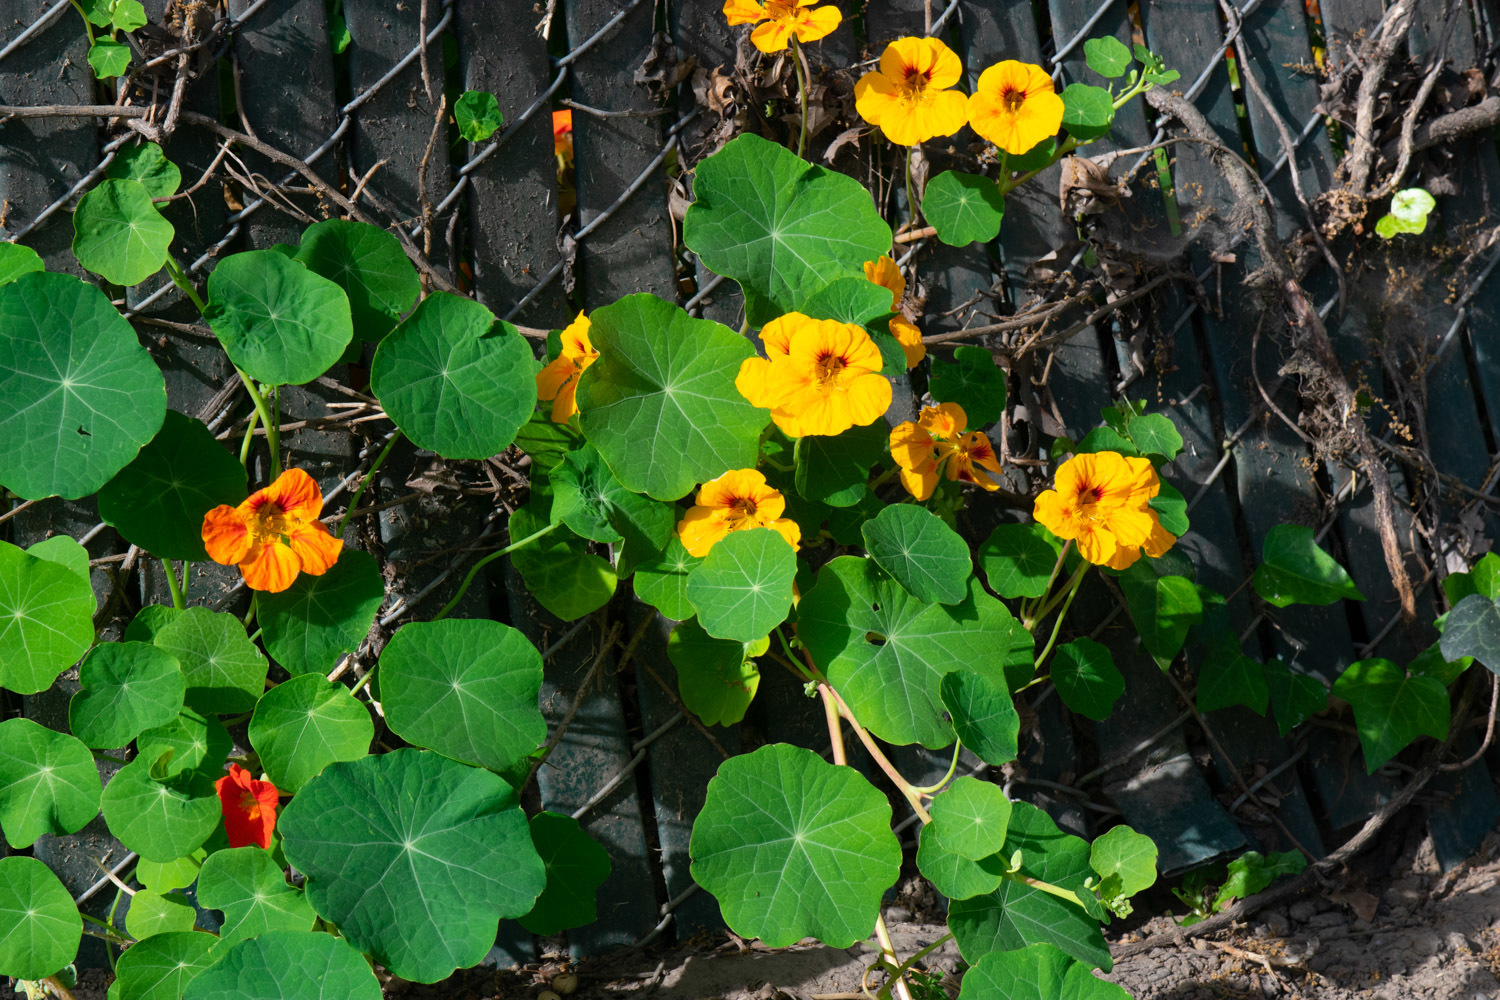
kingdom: Plantae
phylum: Tracheophyta
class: Magnoliopsida
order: Brassicales
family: Tropaeolaceae
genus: Tropaeolum
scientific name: Tropaeolum majus
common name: Nasturtium
